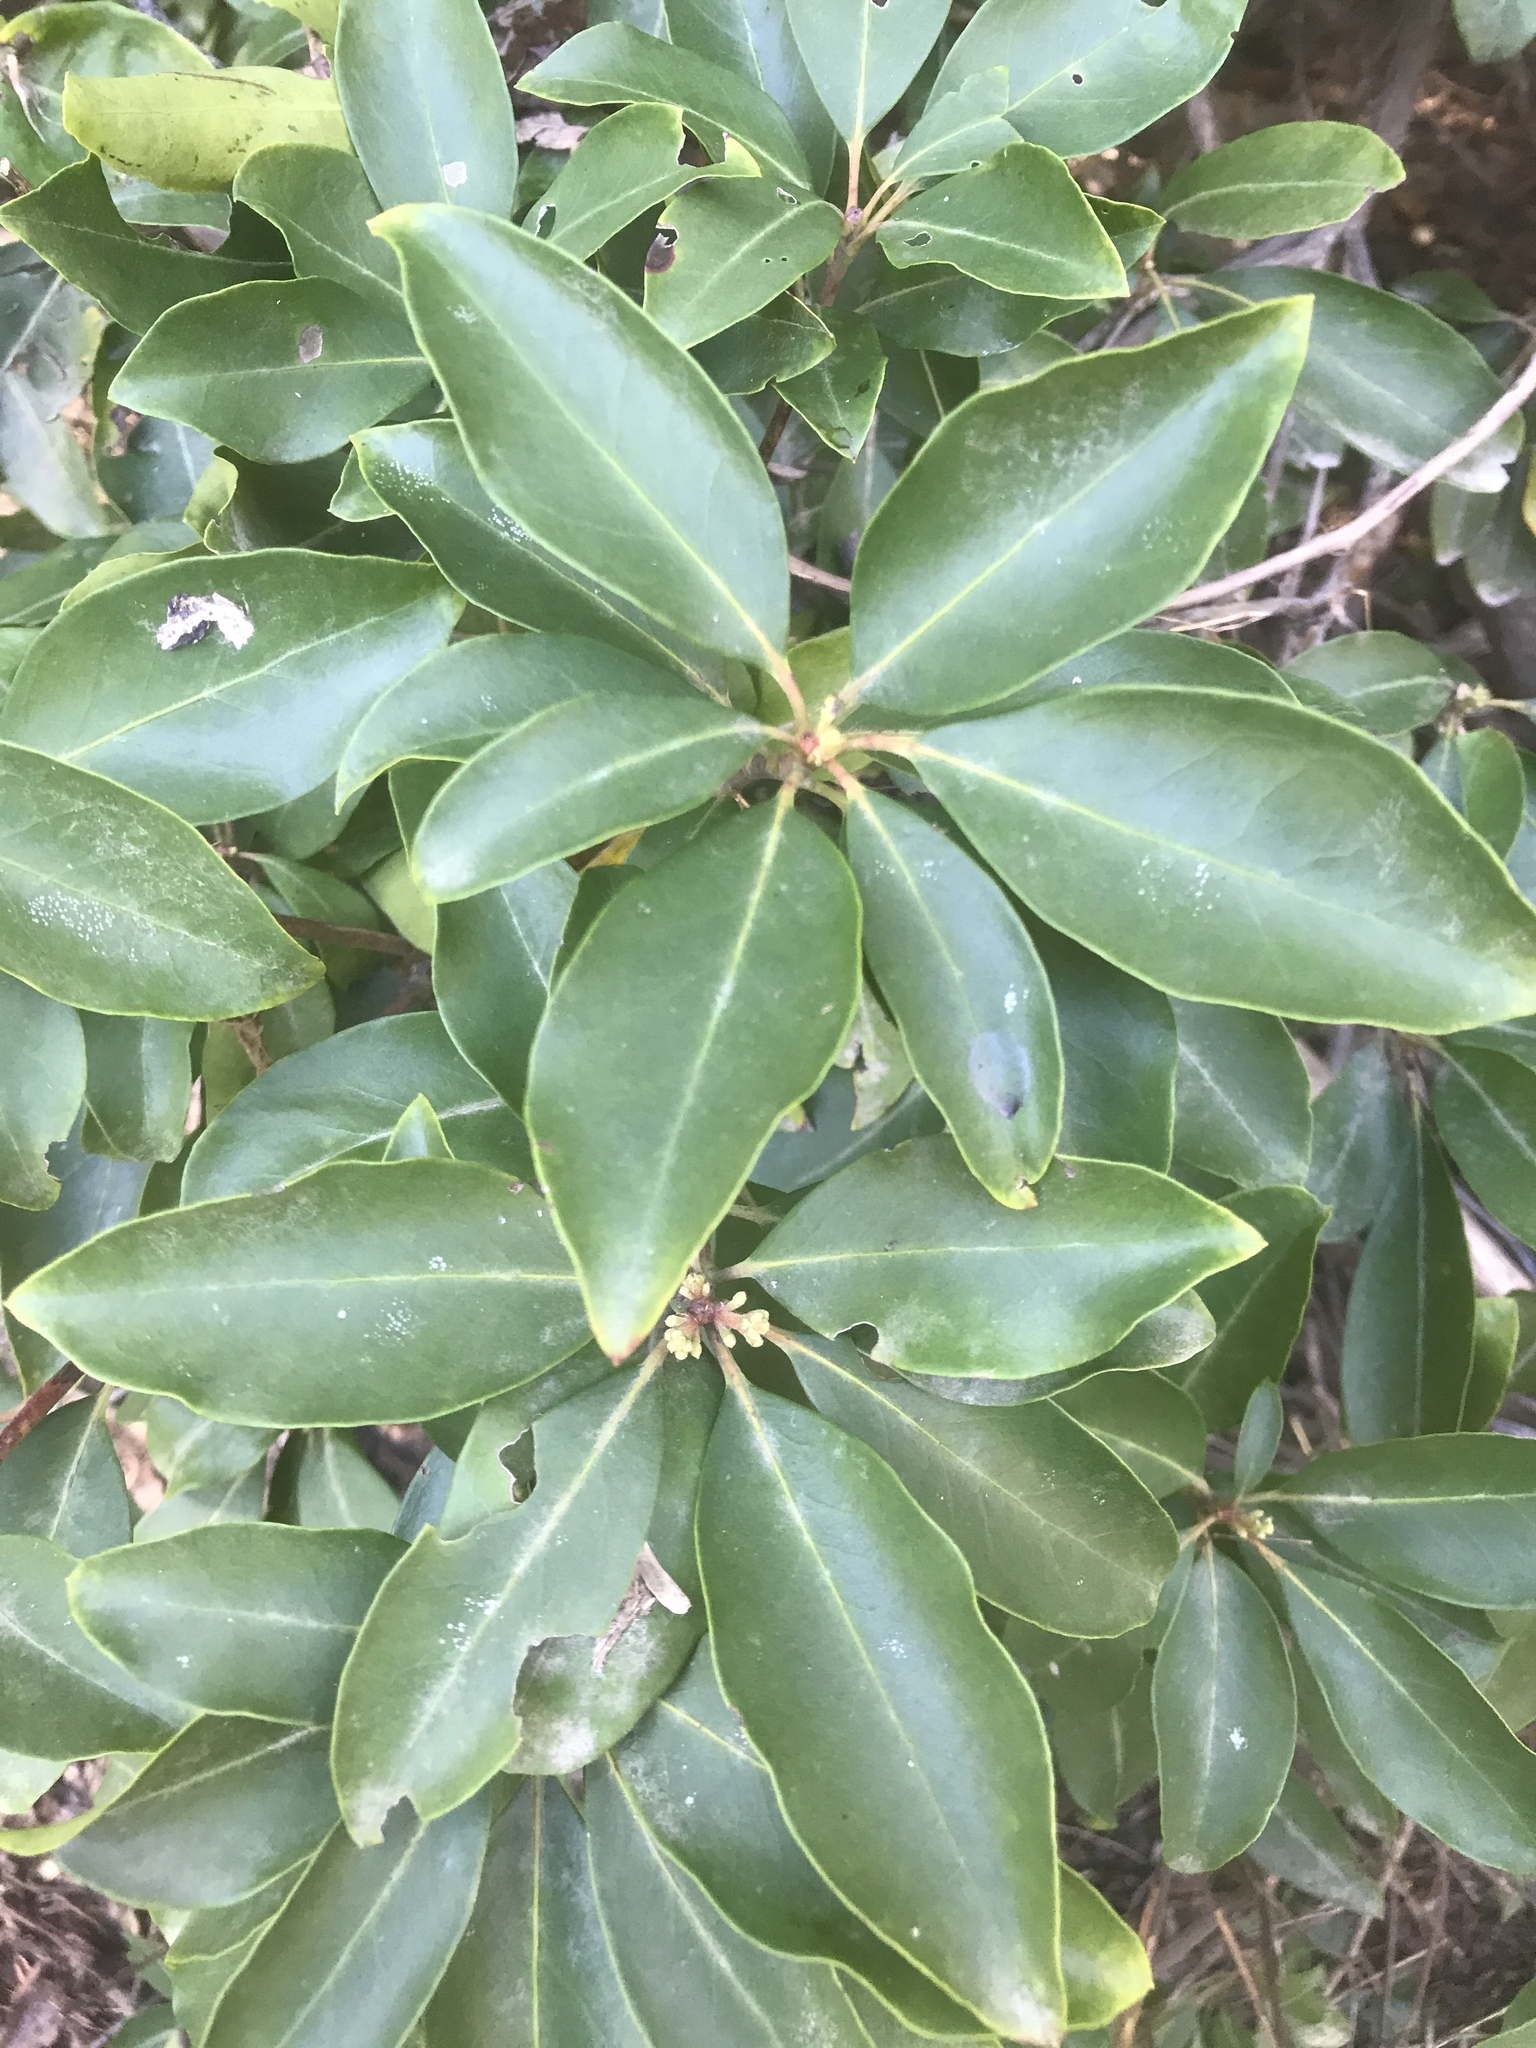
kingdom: Plantae
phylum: Tracheophyta
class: Magnoliopsida
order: Ericales
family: Ericaceae
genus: Kalmia
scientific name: Kalmia latifolia
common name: Mountain-laurel
